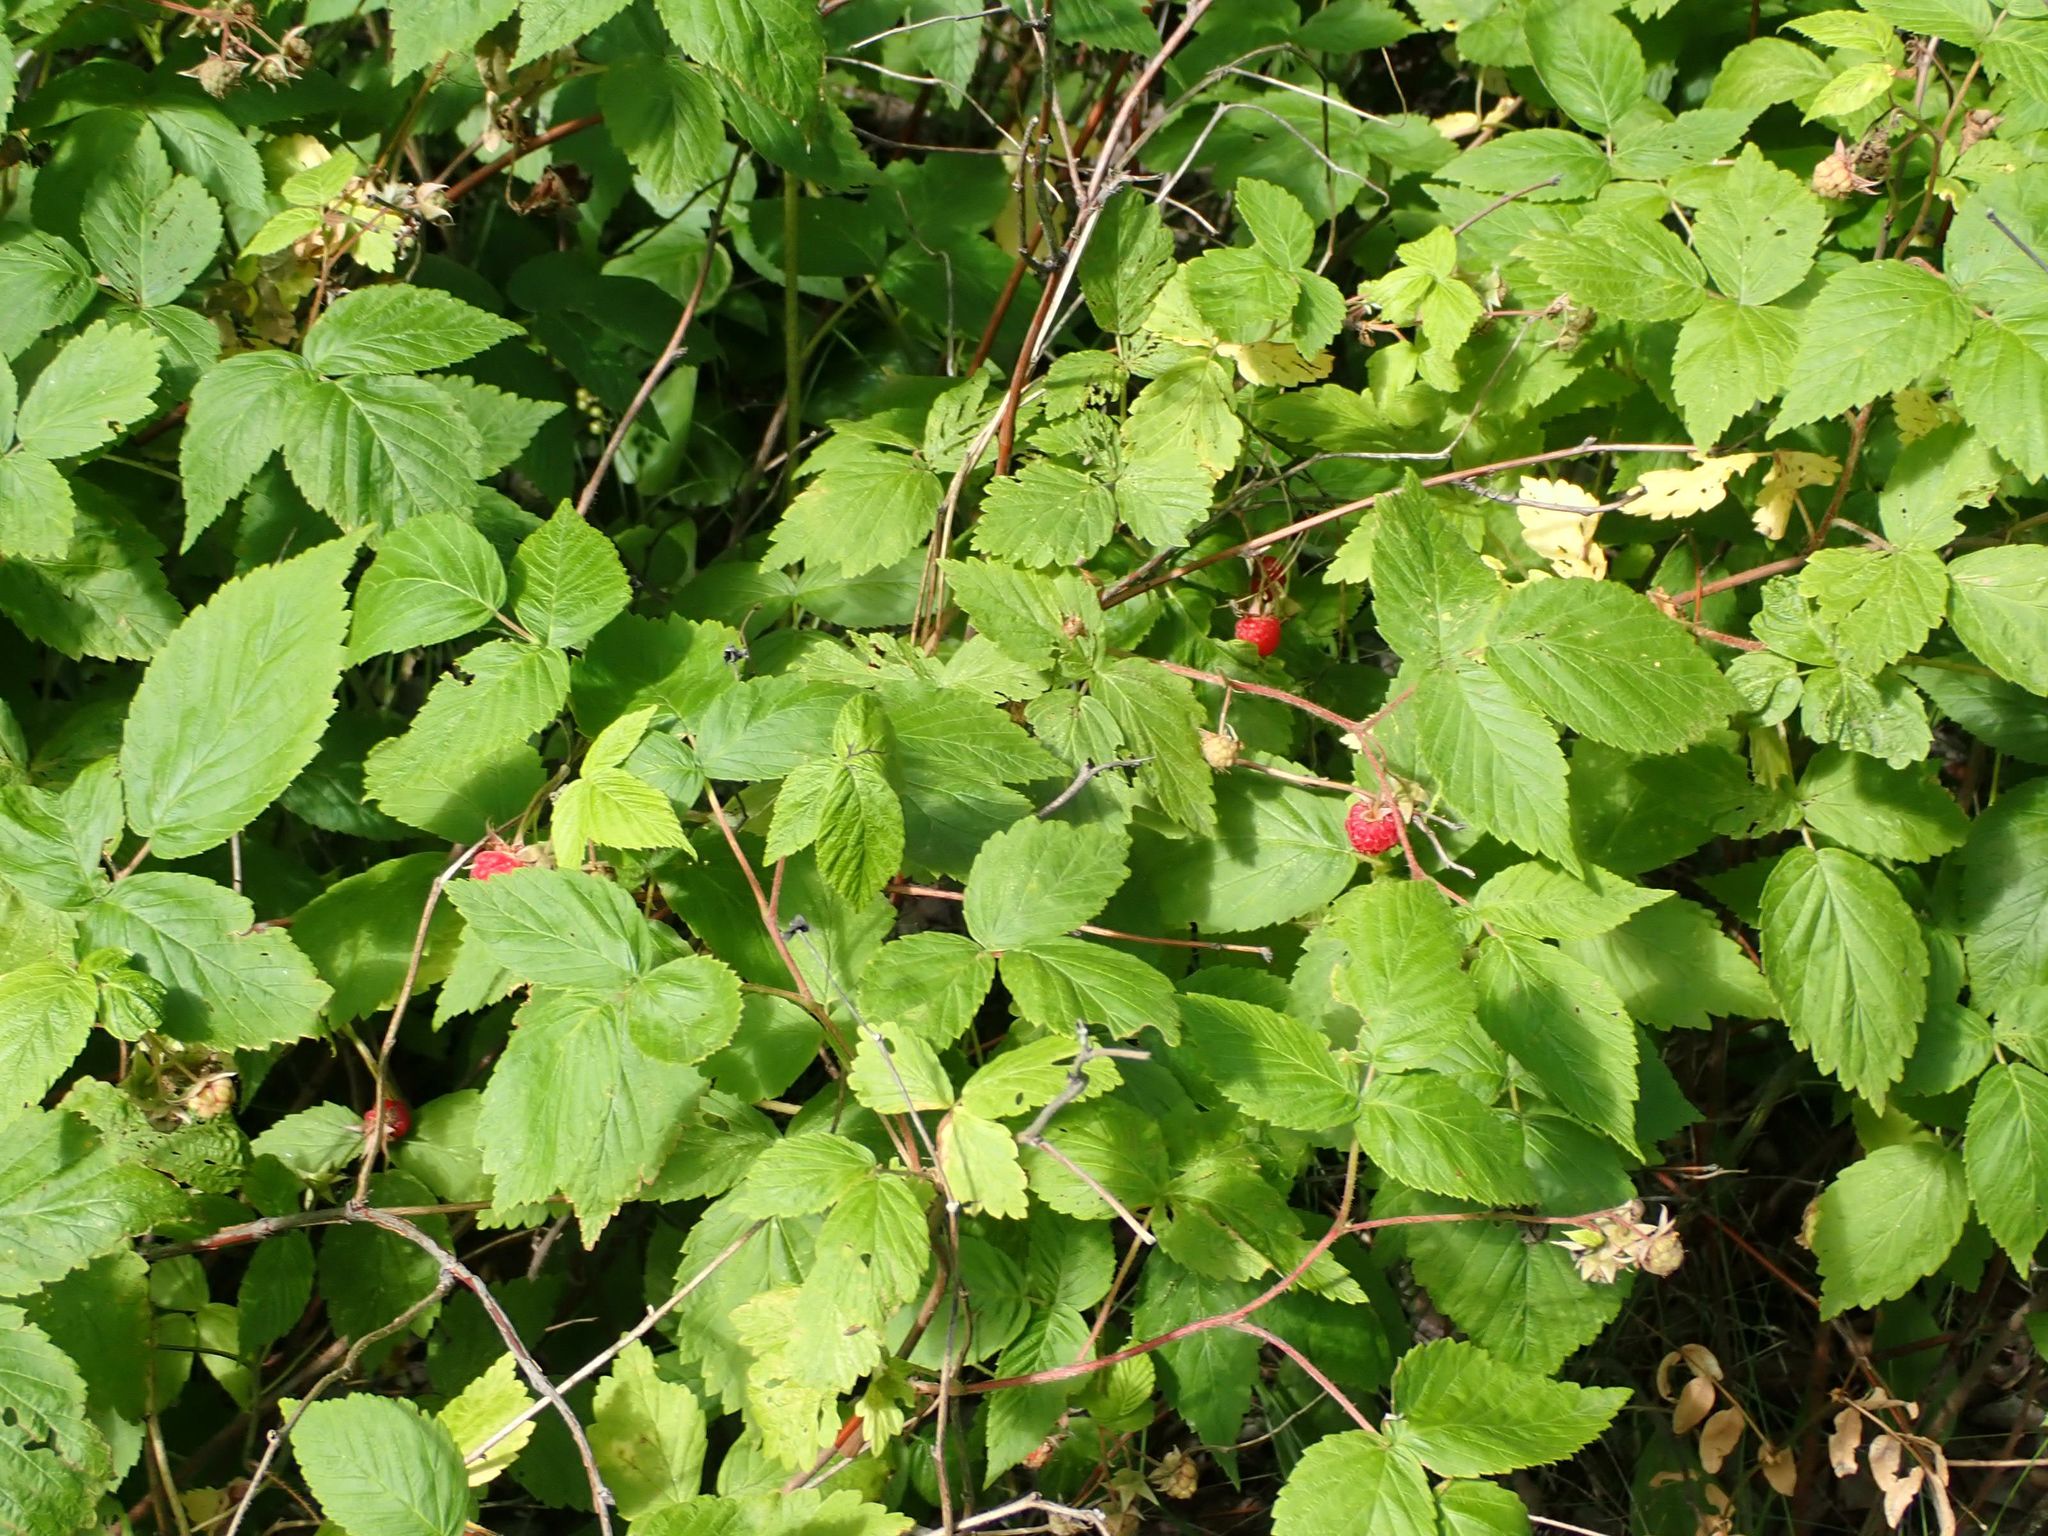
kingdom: Plantae
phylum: Tracheophyta
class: Magnoliopsida
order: Rosales
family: Rosaceae
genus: Rubus
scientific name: Rubus idaeus
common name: Raspberry
